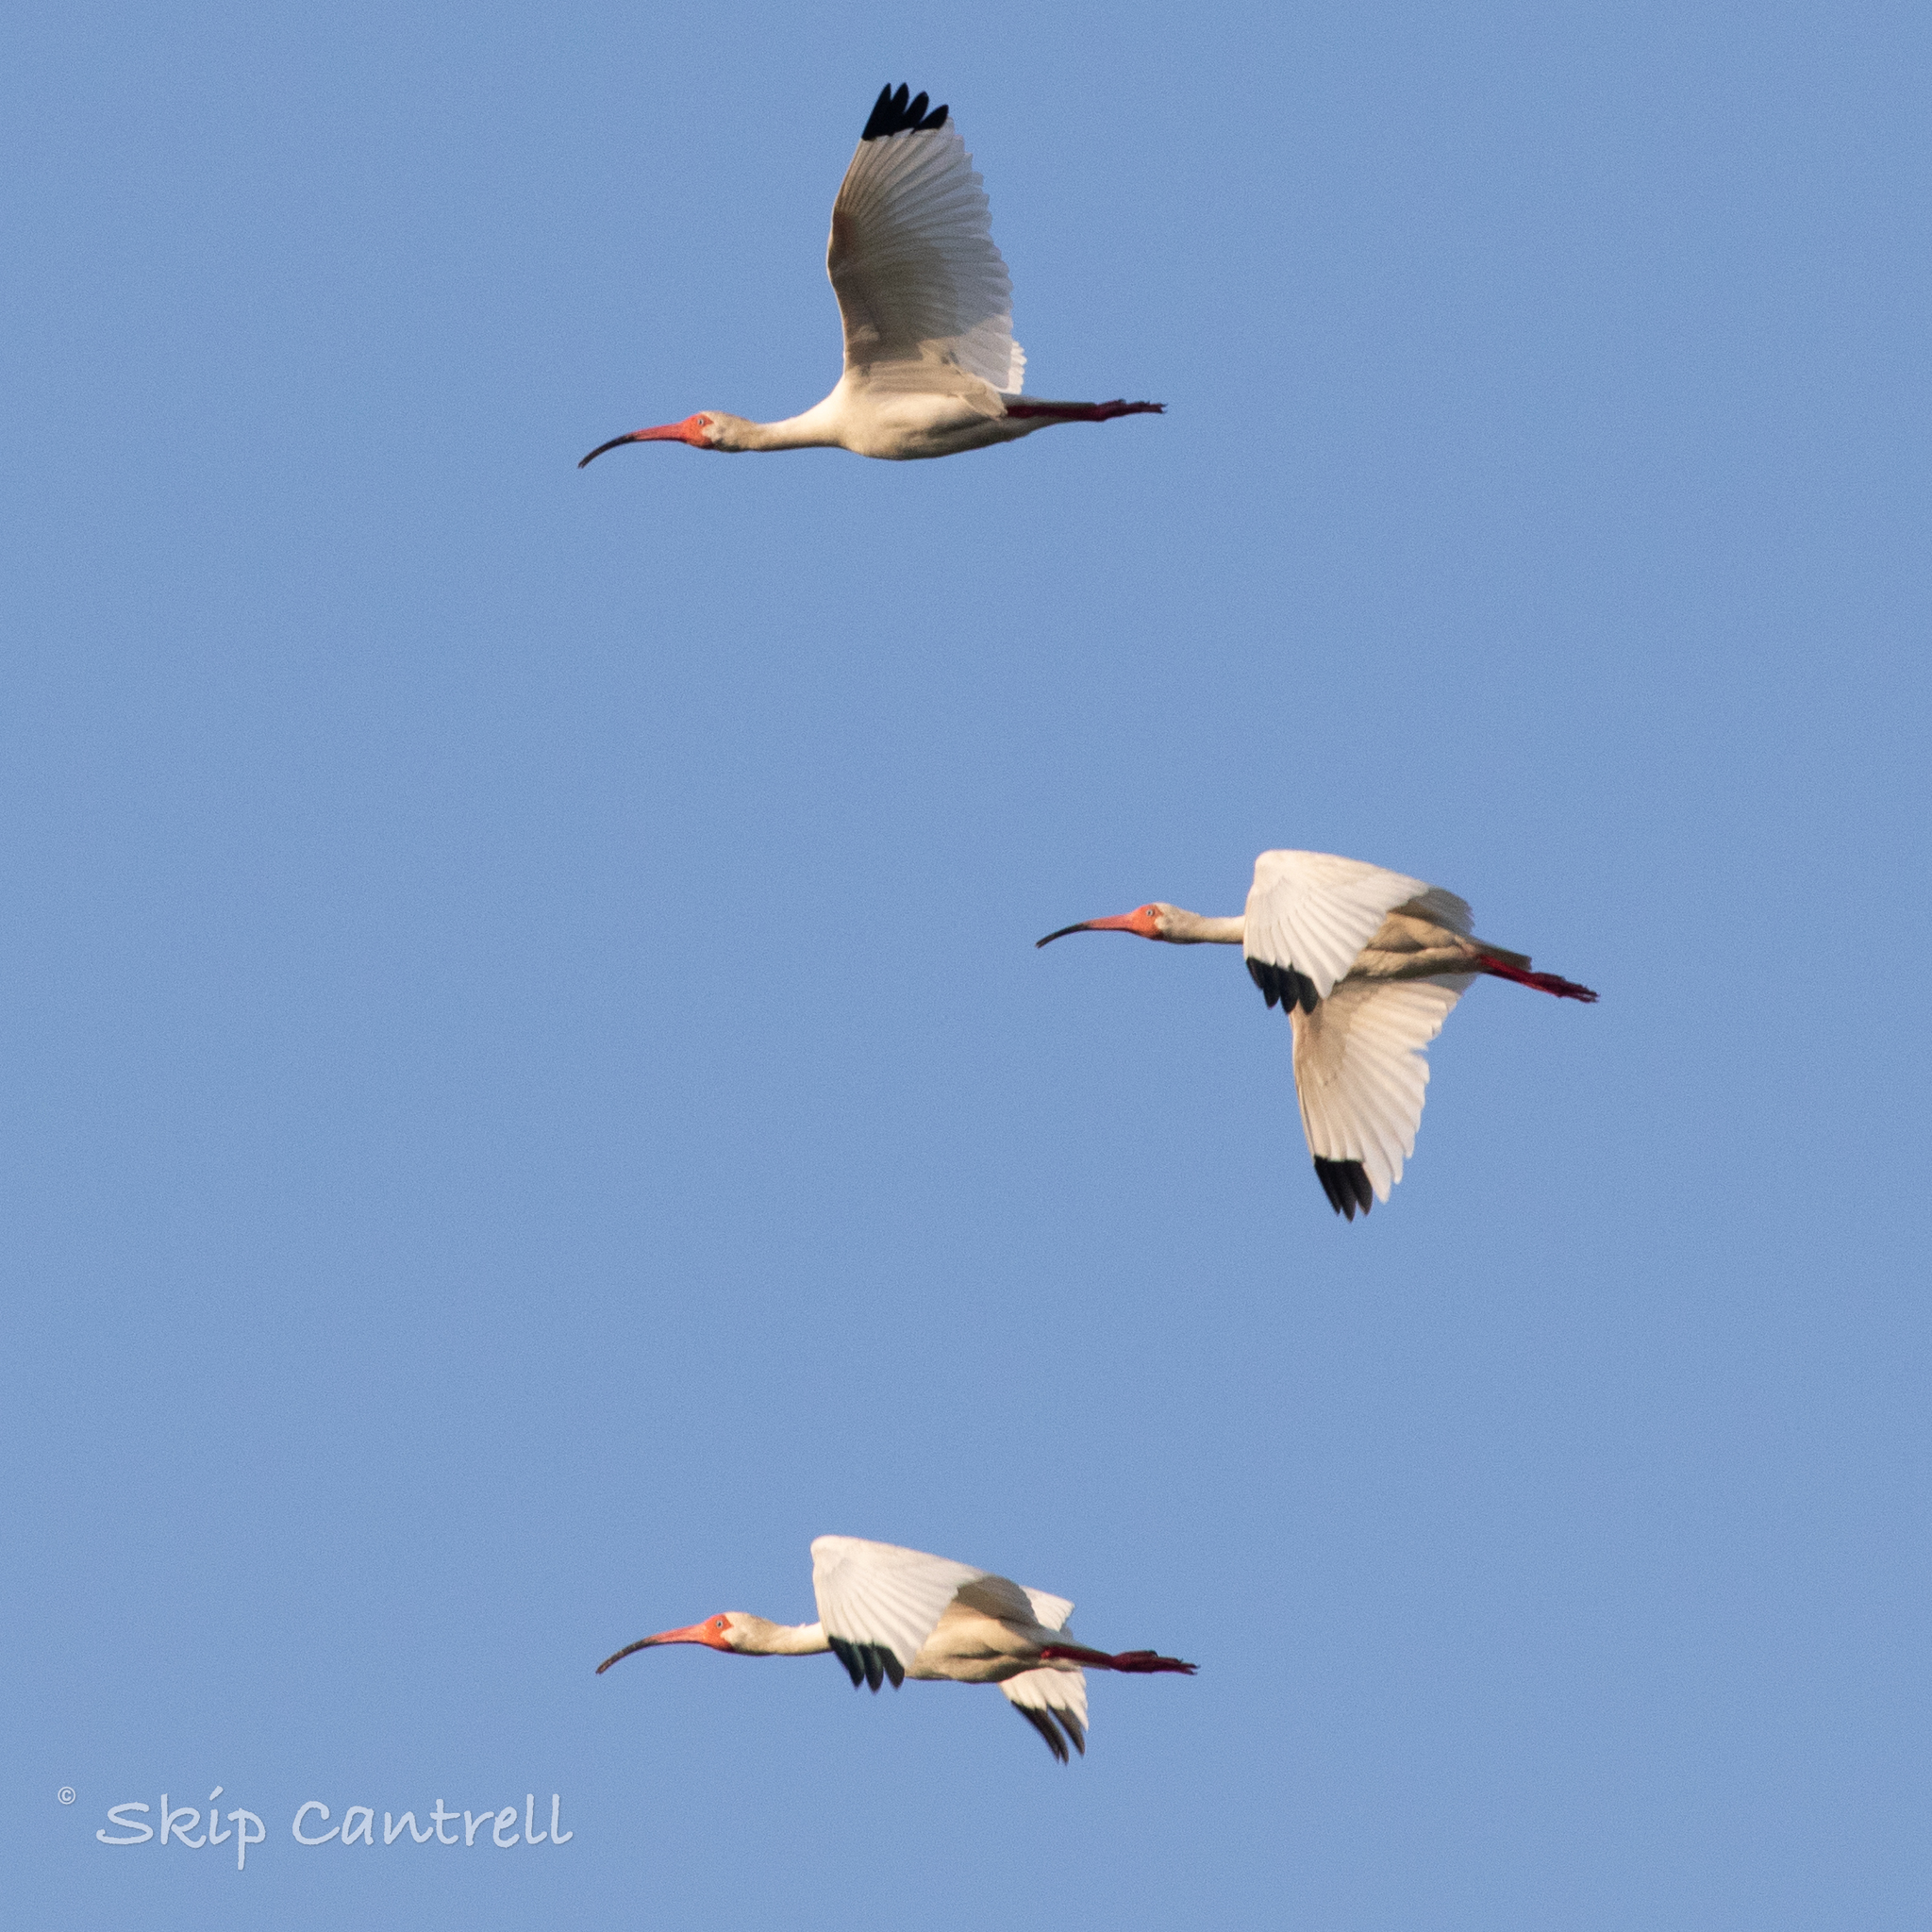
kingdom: Animalia
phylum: Chordata
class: Aves
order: Pelecaniformes
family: Threskiornithidae
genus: Eudocimus
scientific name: Eudocimus albus
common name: White ibis
